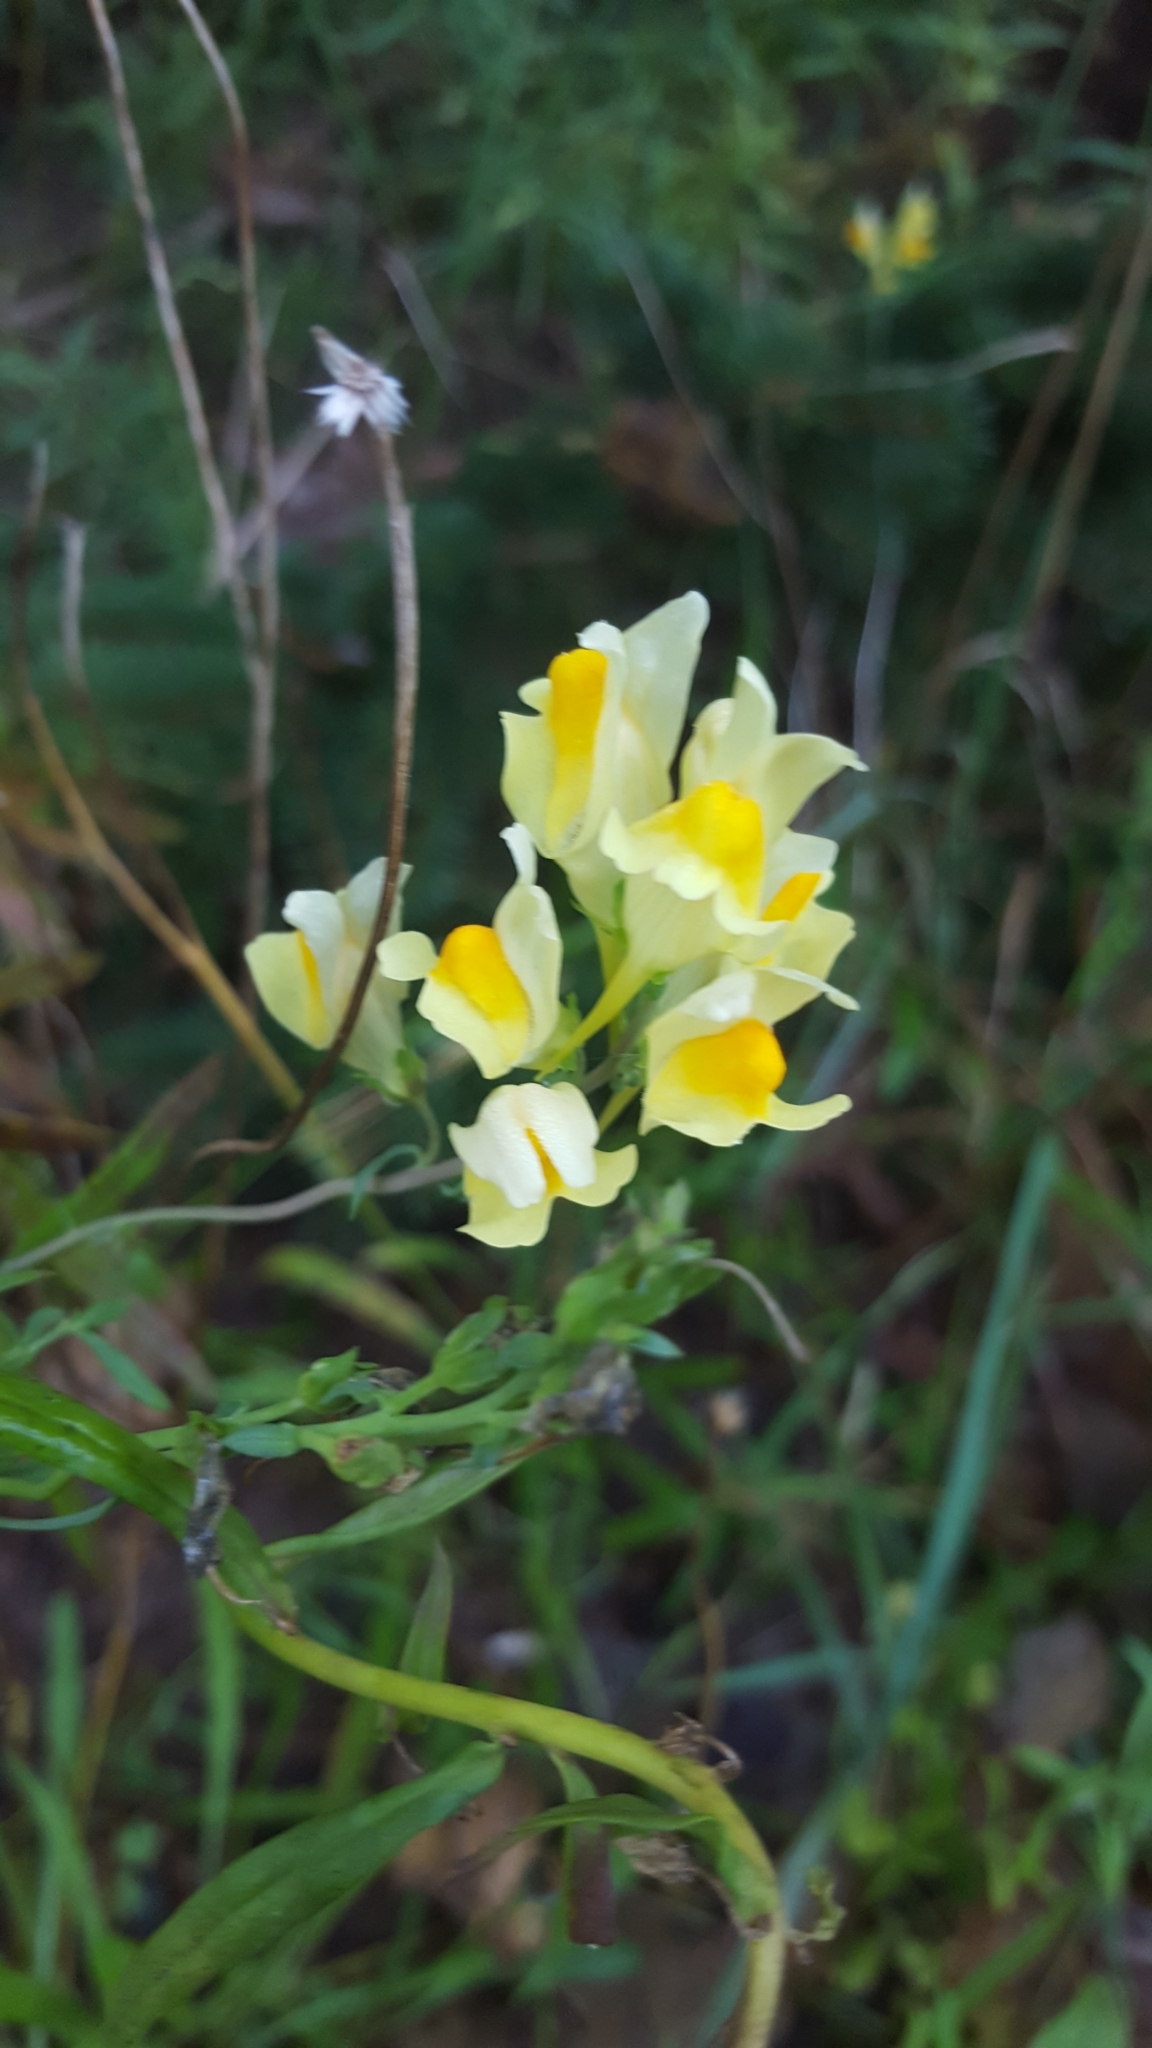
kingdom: Plantae
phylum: Tracheophyta
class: Magnoliopsida
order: Lamiales
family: Plantaginaceae
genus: Linaria
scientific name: Linaria vulgaris
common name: Butter and eggs
